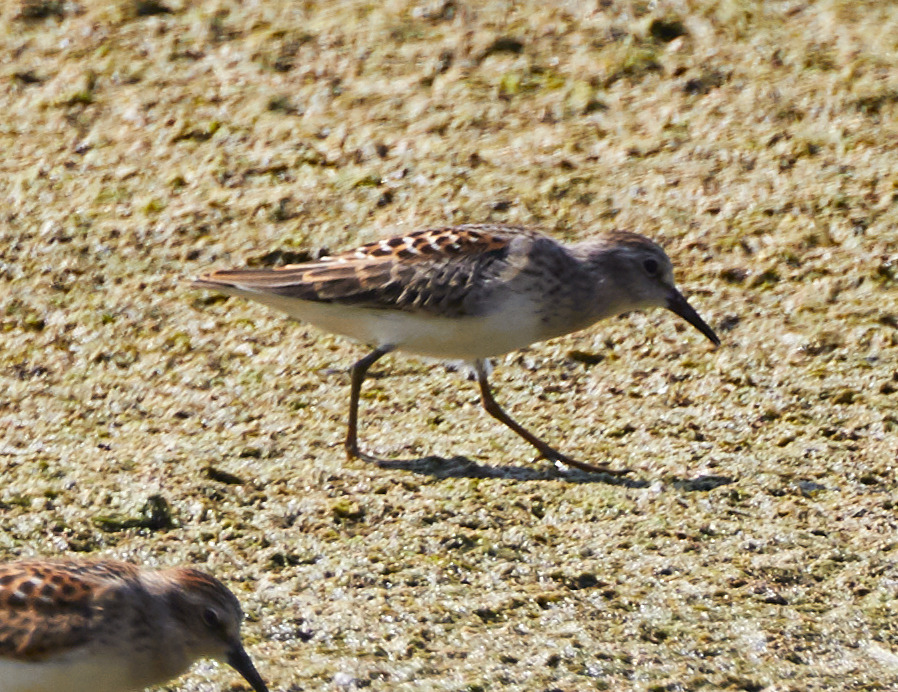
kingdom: Animalia
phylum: Chordata
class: Aves
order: Charadriiformes
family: Scolopacidae
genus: Calidris
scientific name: Calidris minutilla
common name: Least sandpiper
